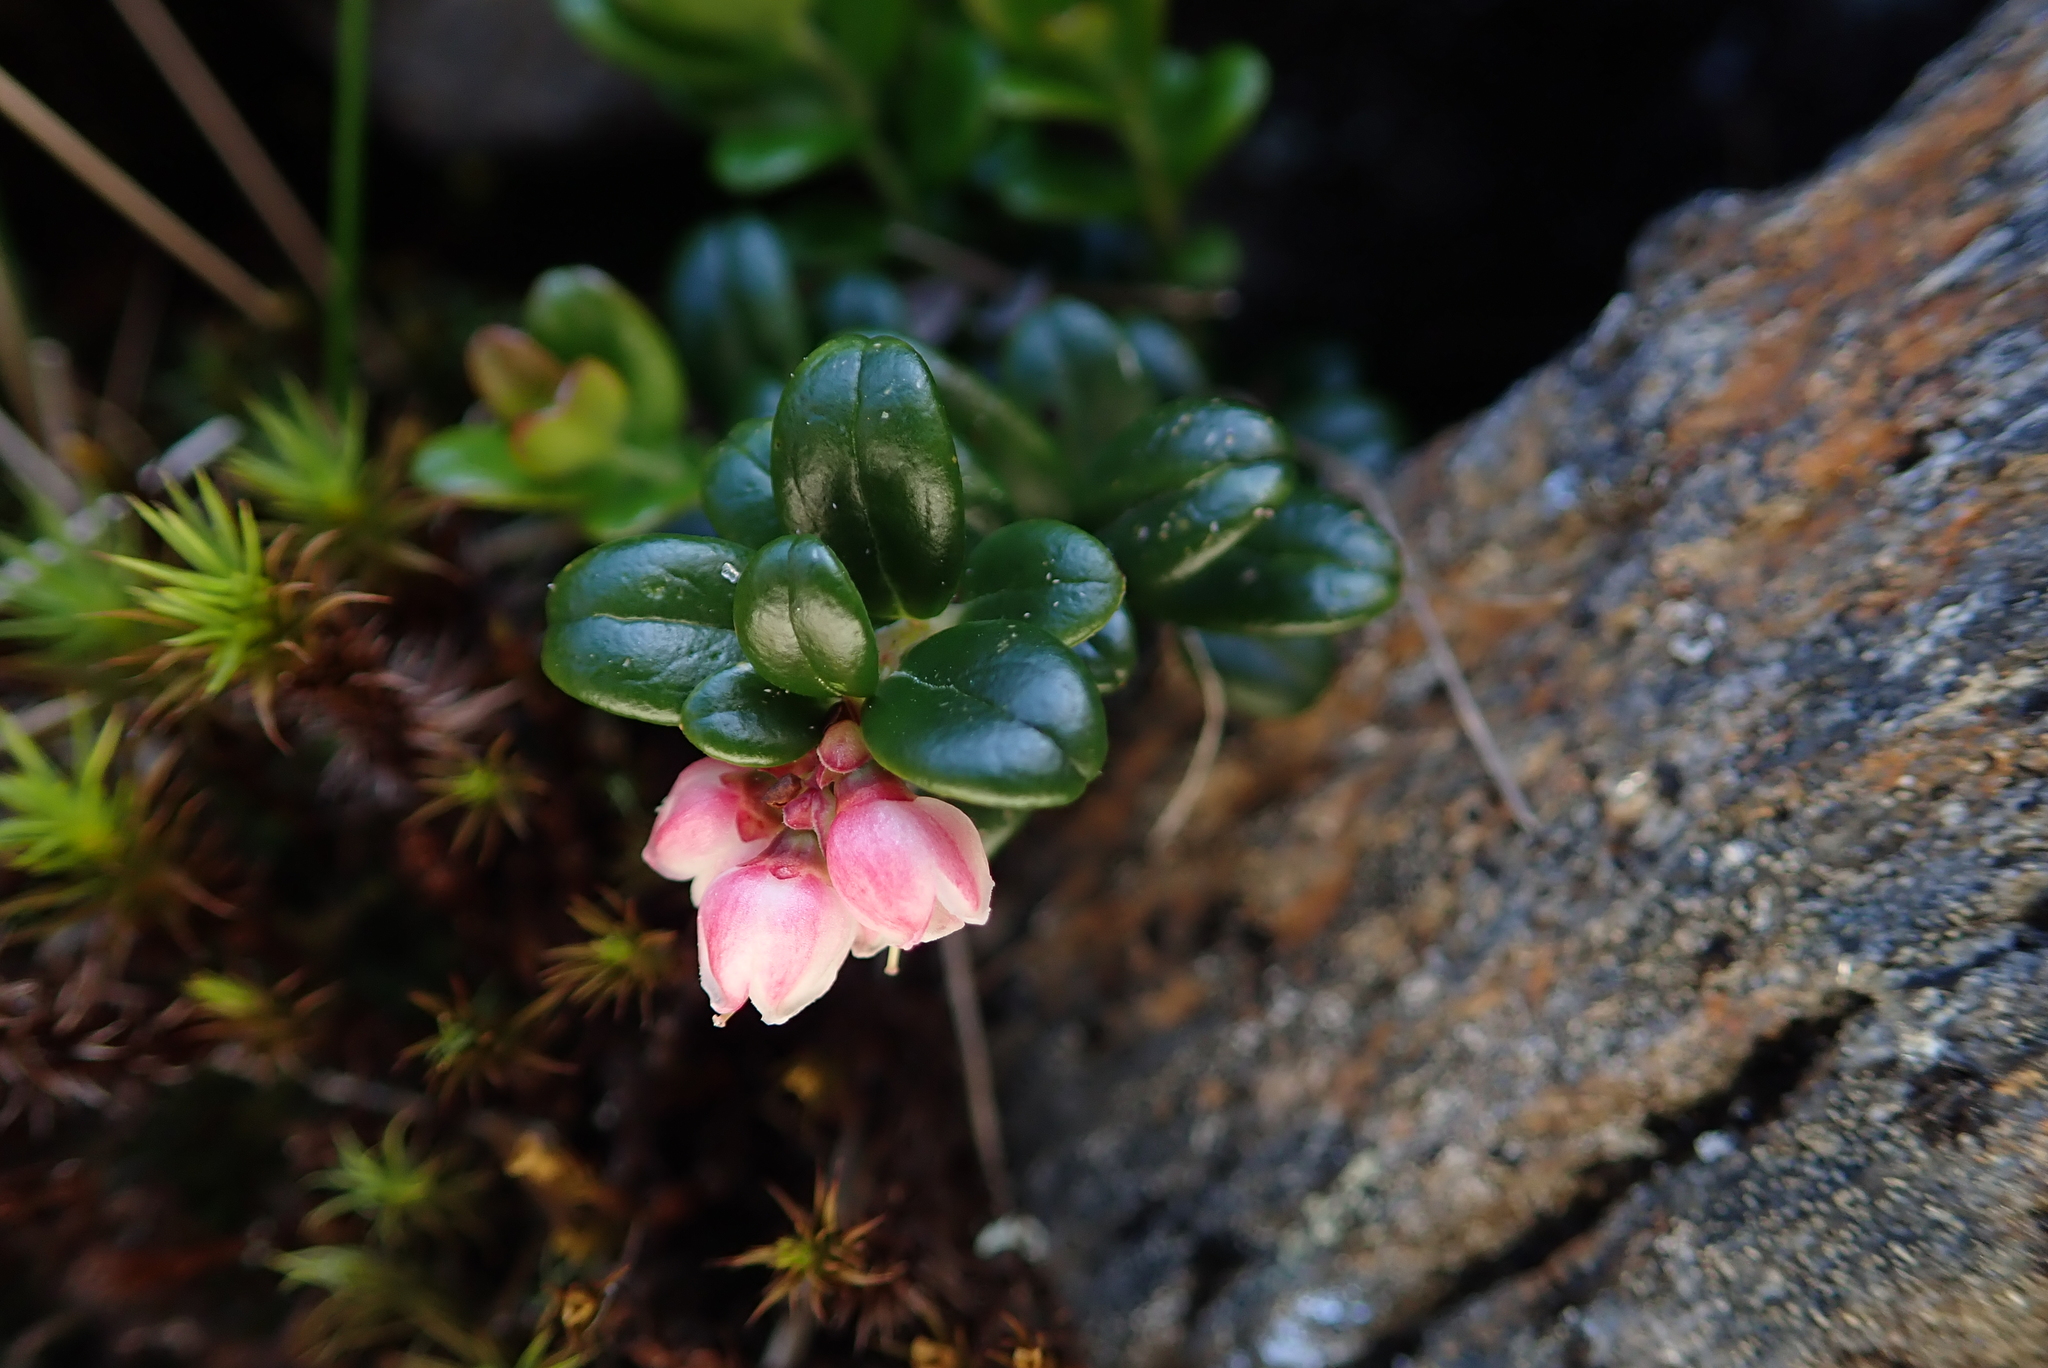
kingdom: Plantae
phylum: Tracheophyta
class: Magnoliopsida
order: Ericales
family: Ericaceae
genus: Vaccinium
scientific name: Vaccinium vitis-idaea
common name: Cowberry
